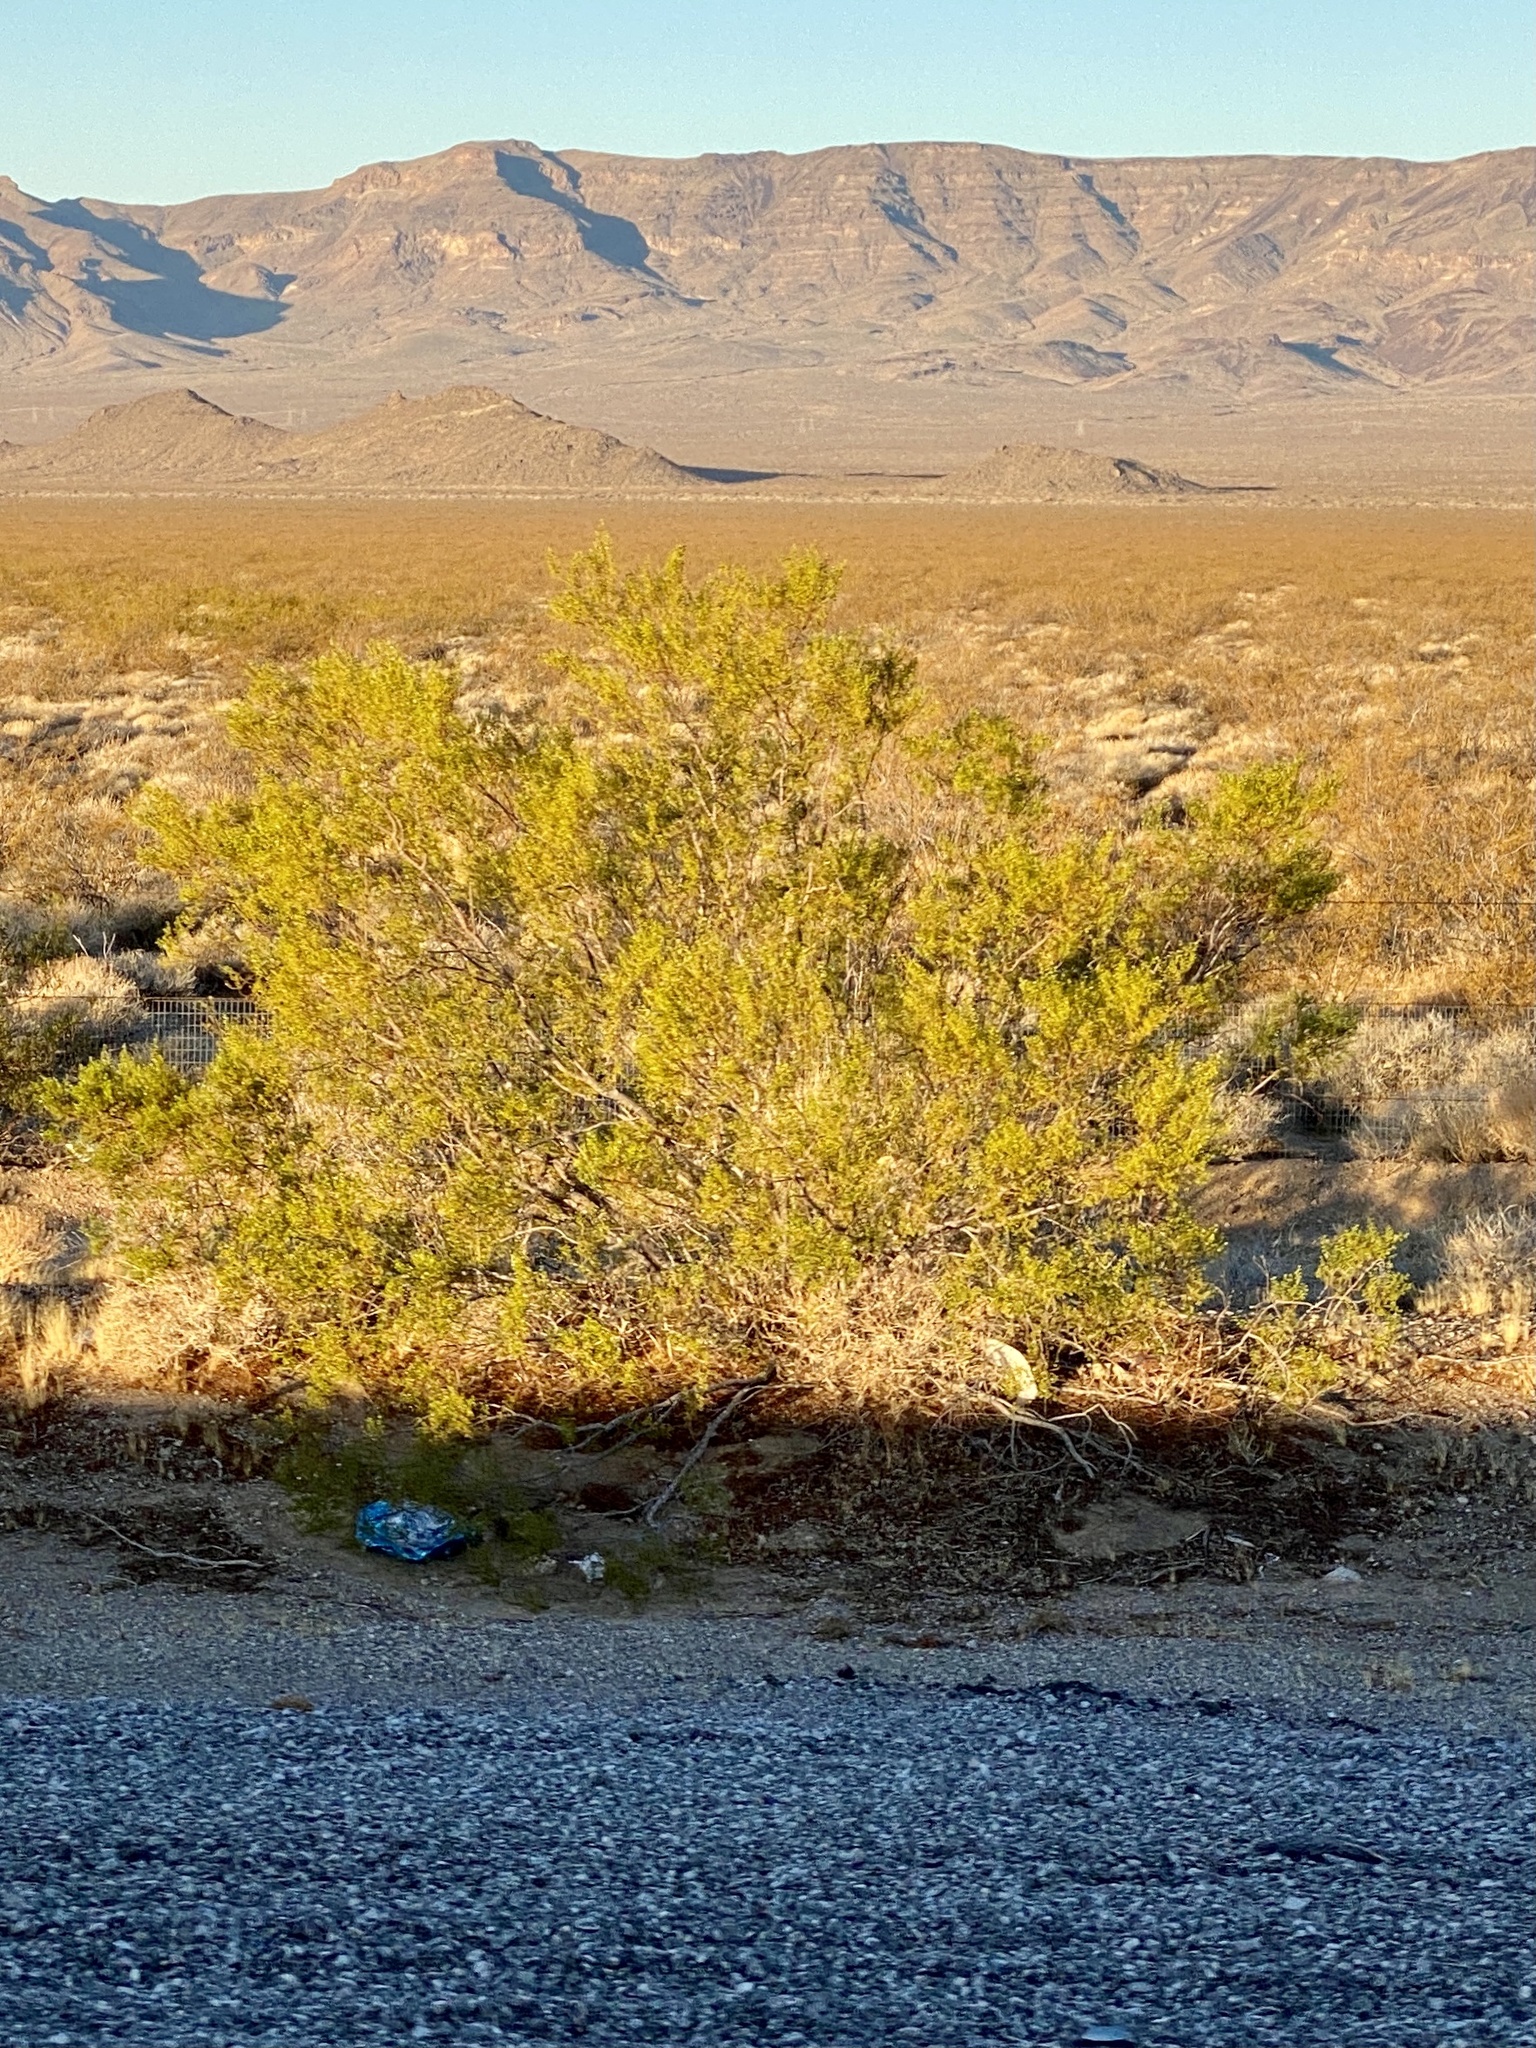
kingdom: Plantae
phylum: Tracheophyta
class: Magnoliopsida
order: Zygophyllales
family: Zygophyllaceae
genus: Larrea
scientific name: Larrea tridentata
